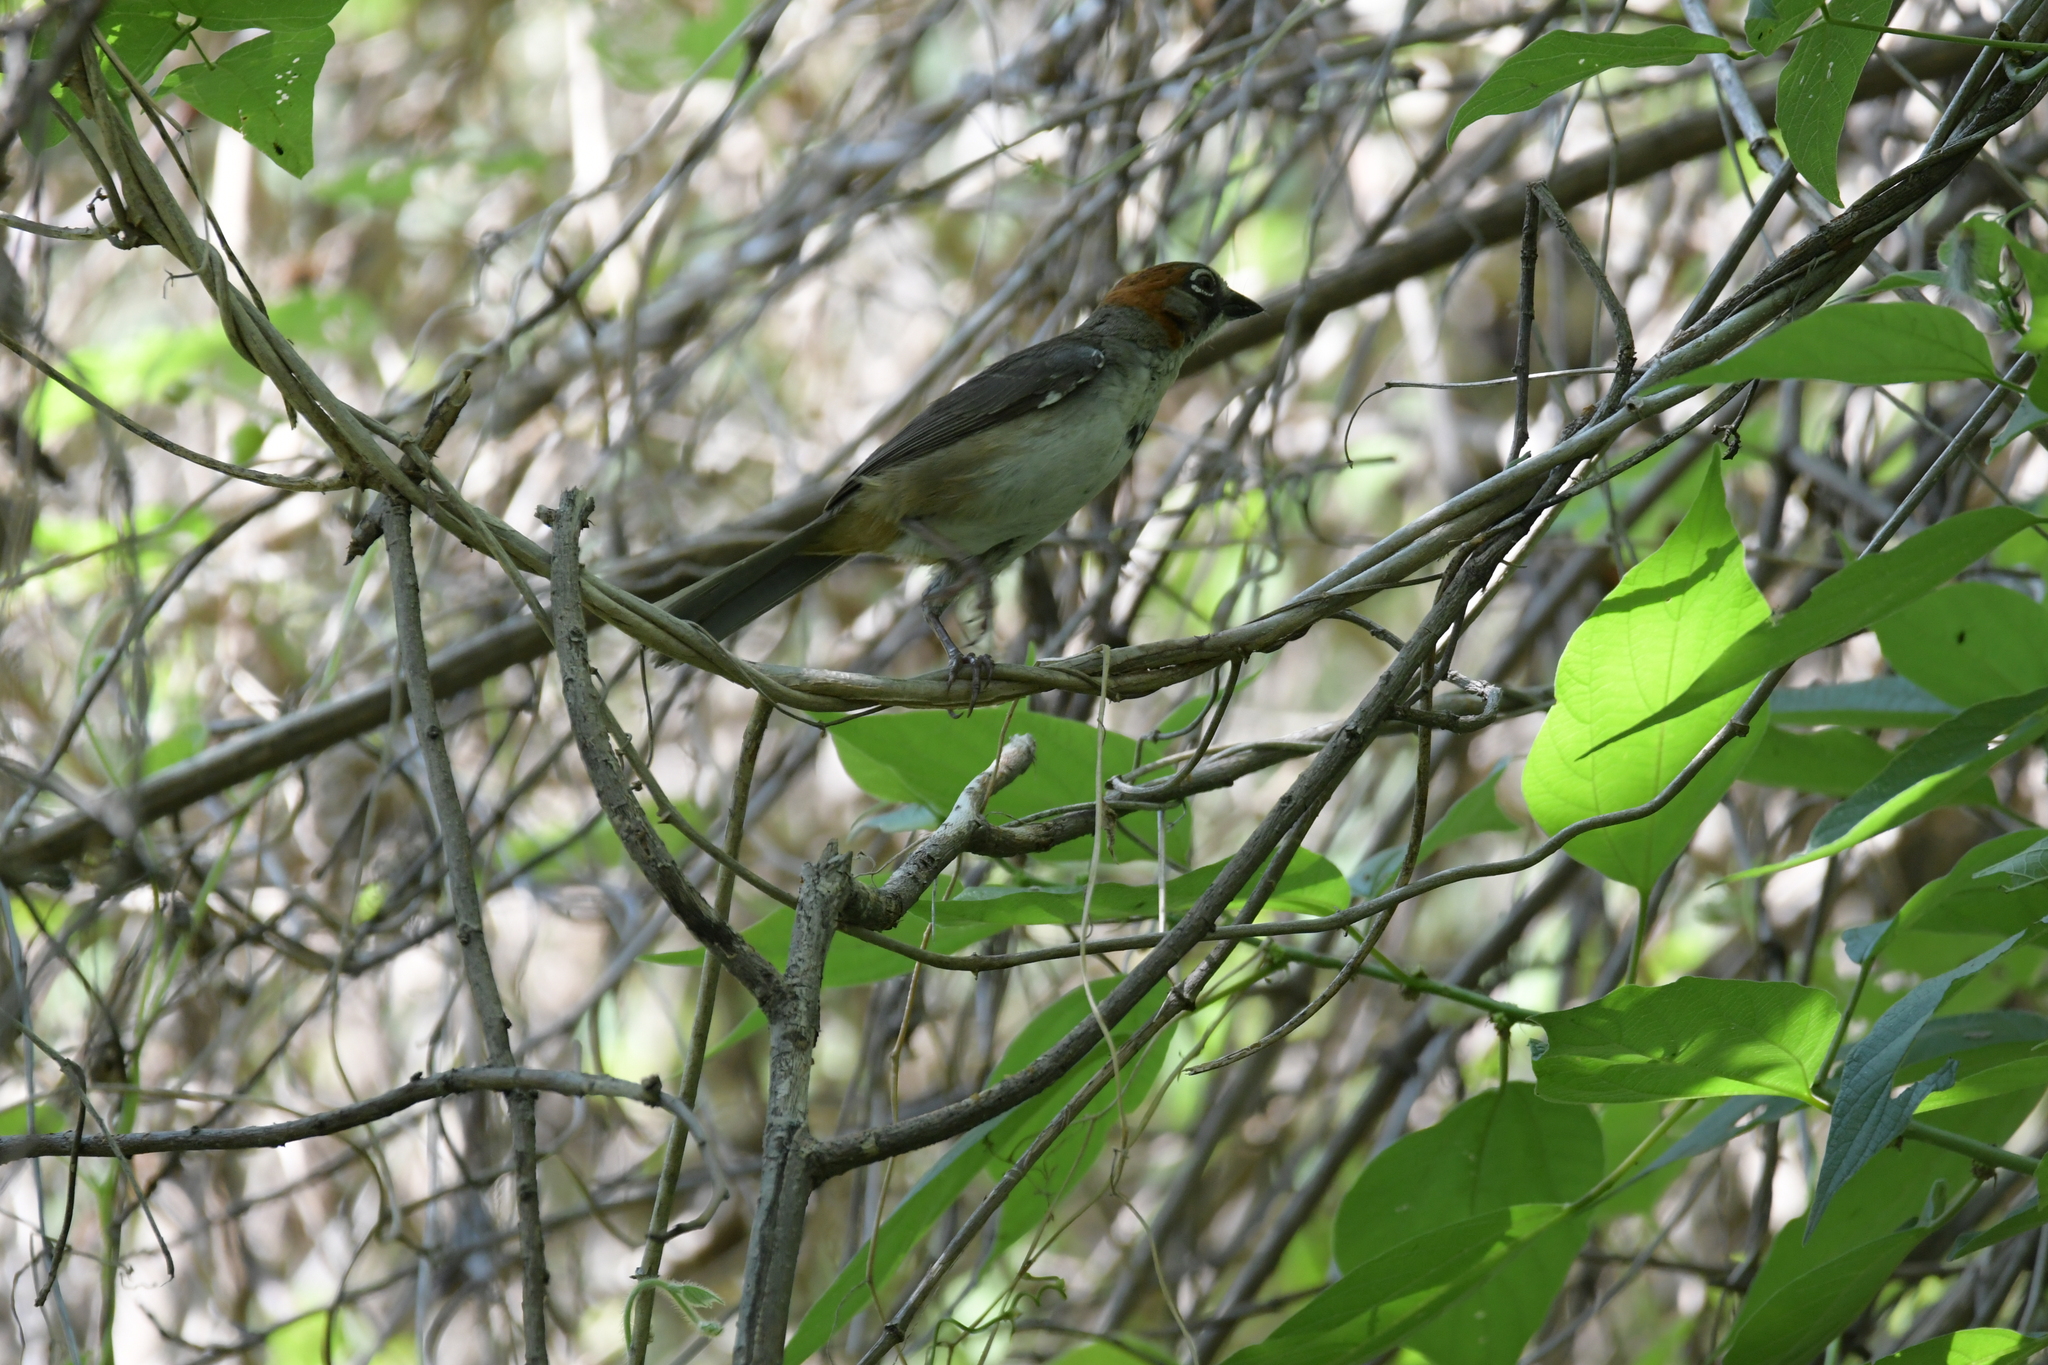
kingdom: Animalia
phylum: Chordata
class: Aves
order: Passeriformes
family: Passerellidae
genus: Melozone
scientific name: Melozone kieneri
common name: Rusty-crowned ground-sparrow
